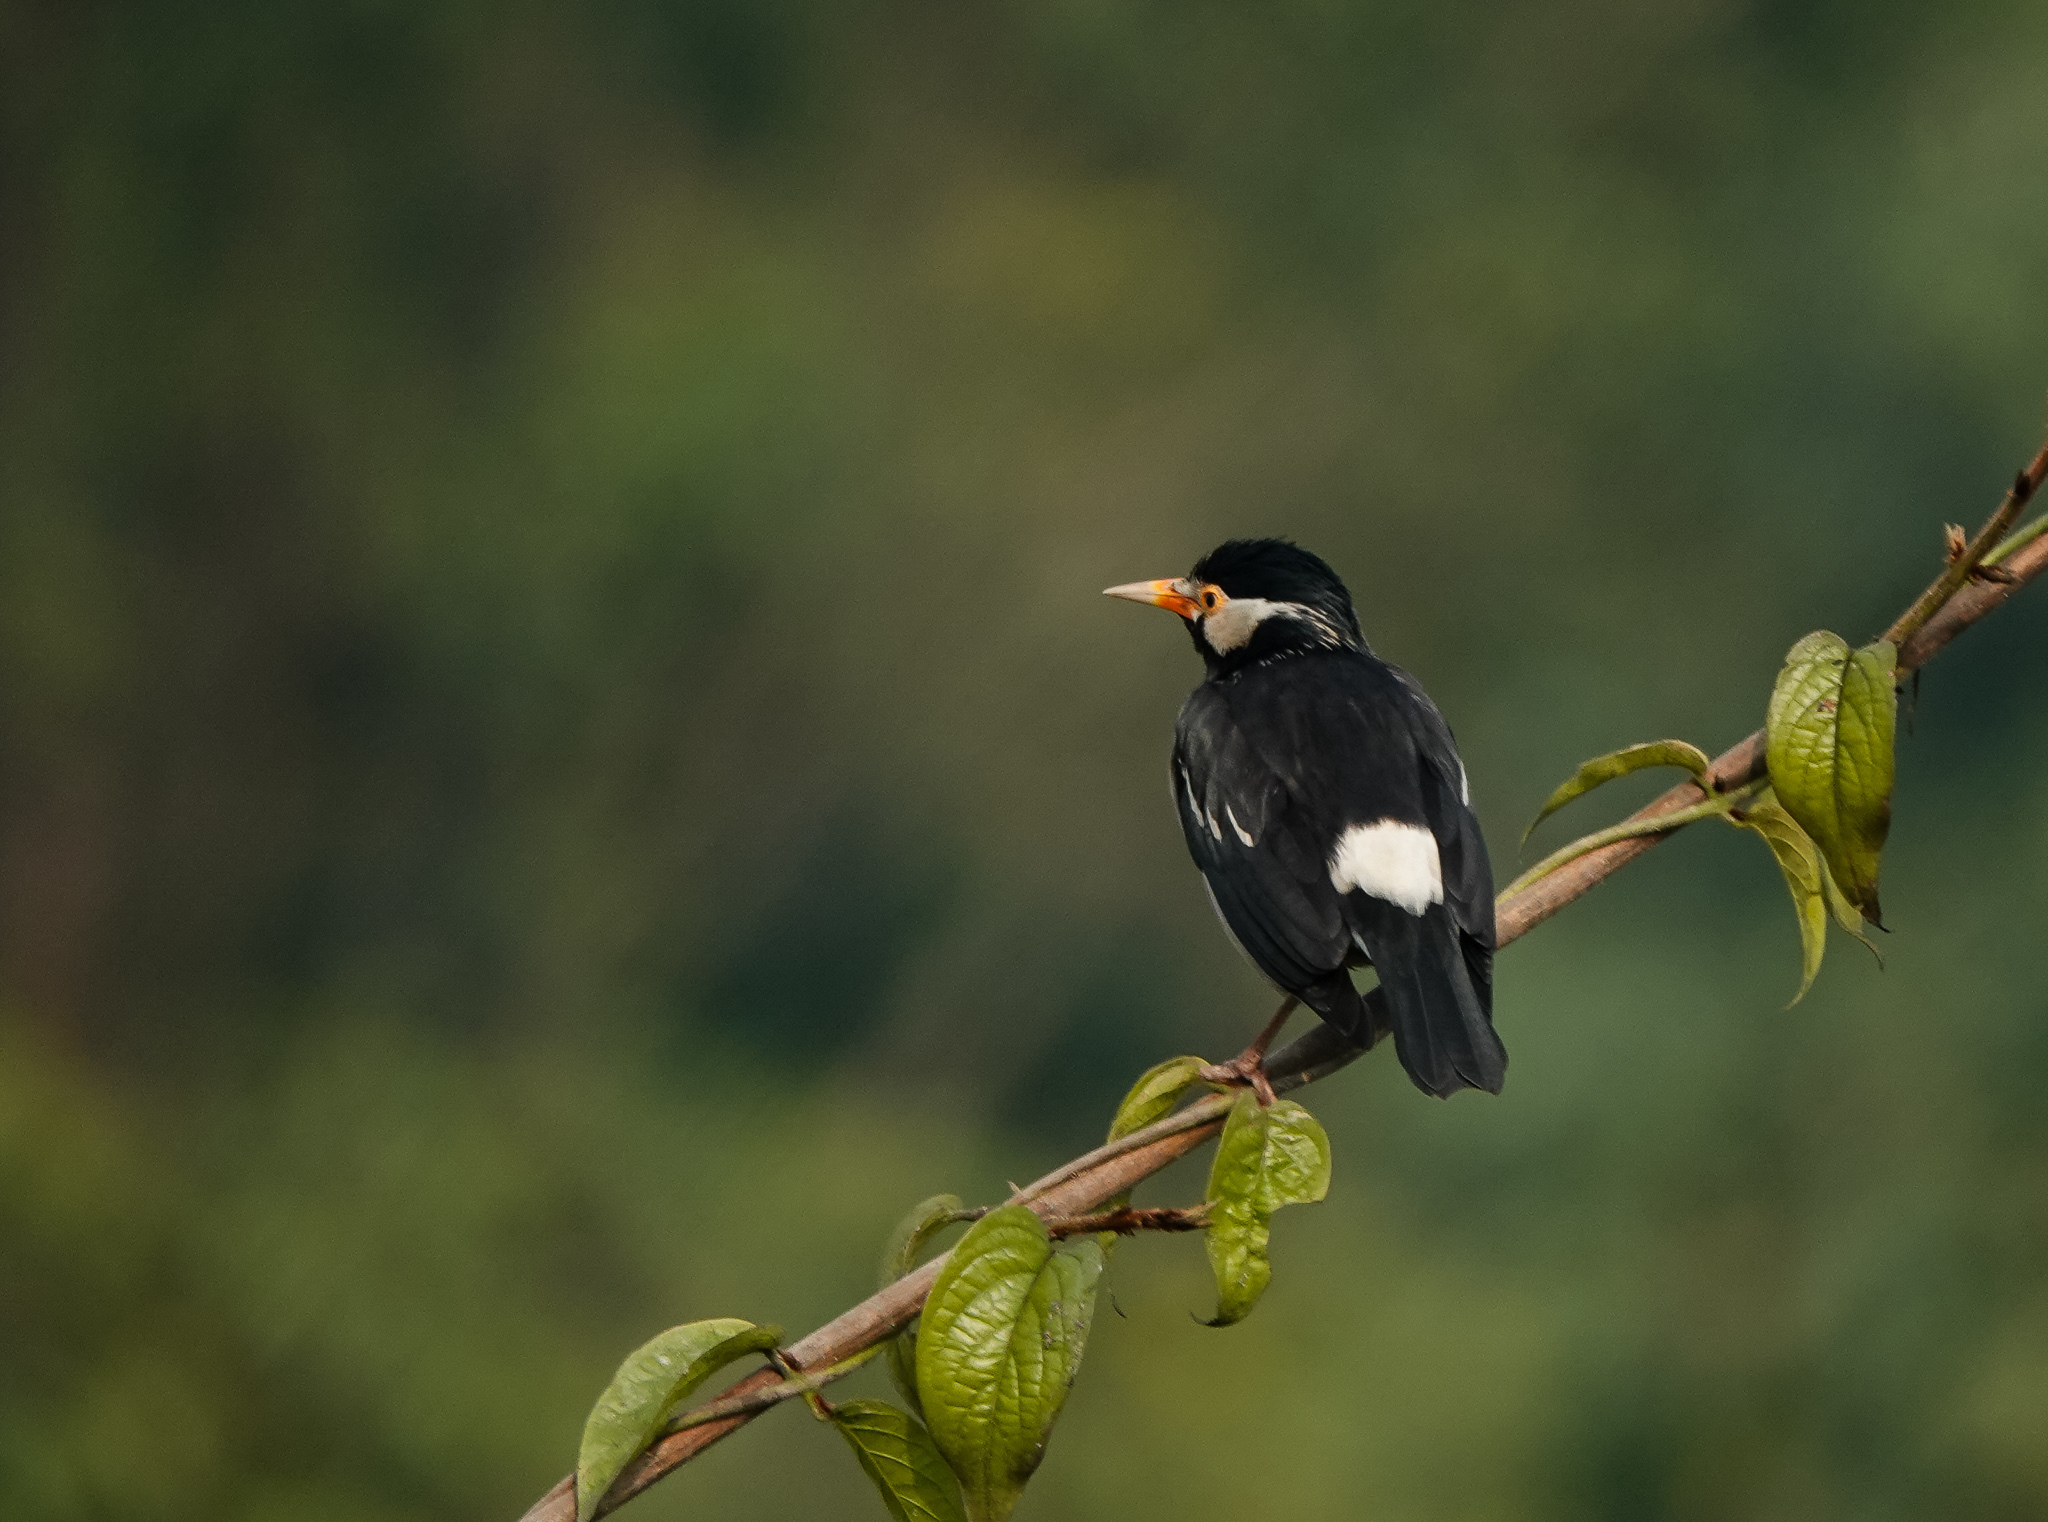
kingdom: Animalia
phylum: Chordata
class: Aves
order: Passeriformes
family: Sturnidae
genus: Gracupica
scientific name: Gracupica contra
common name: Pied myna
